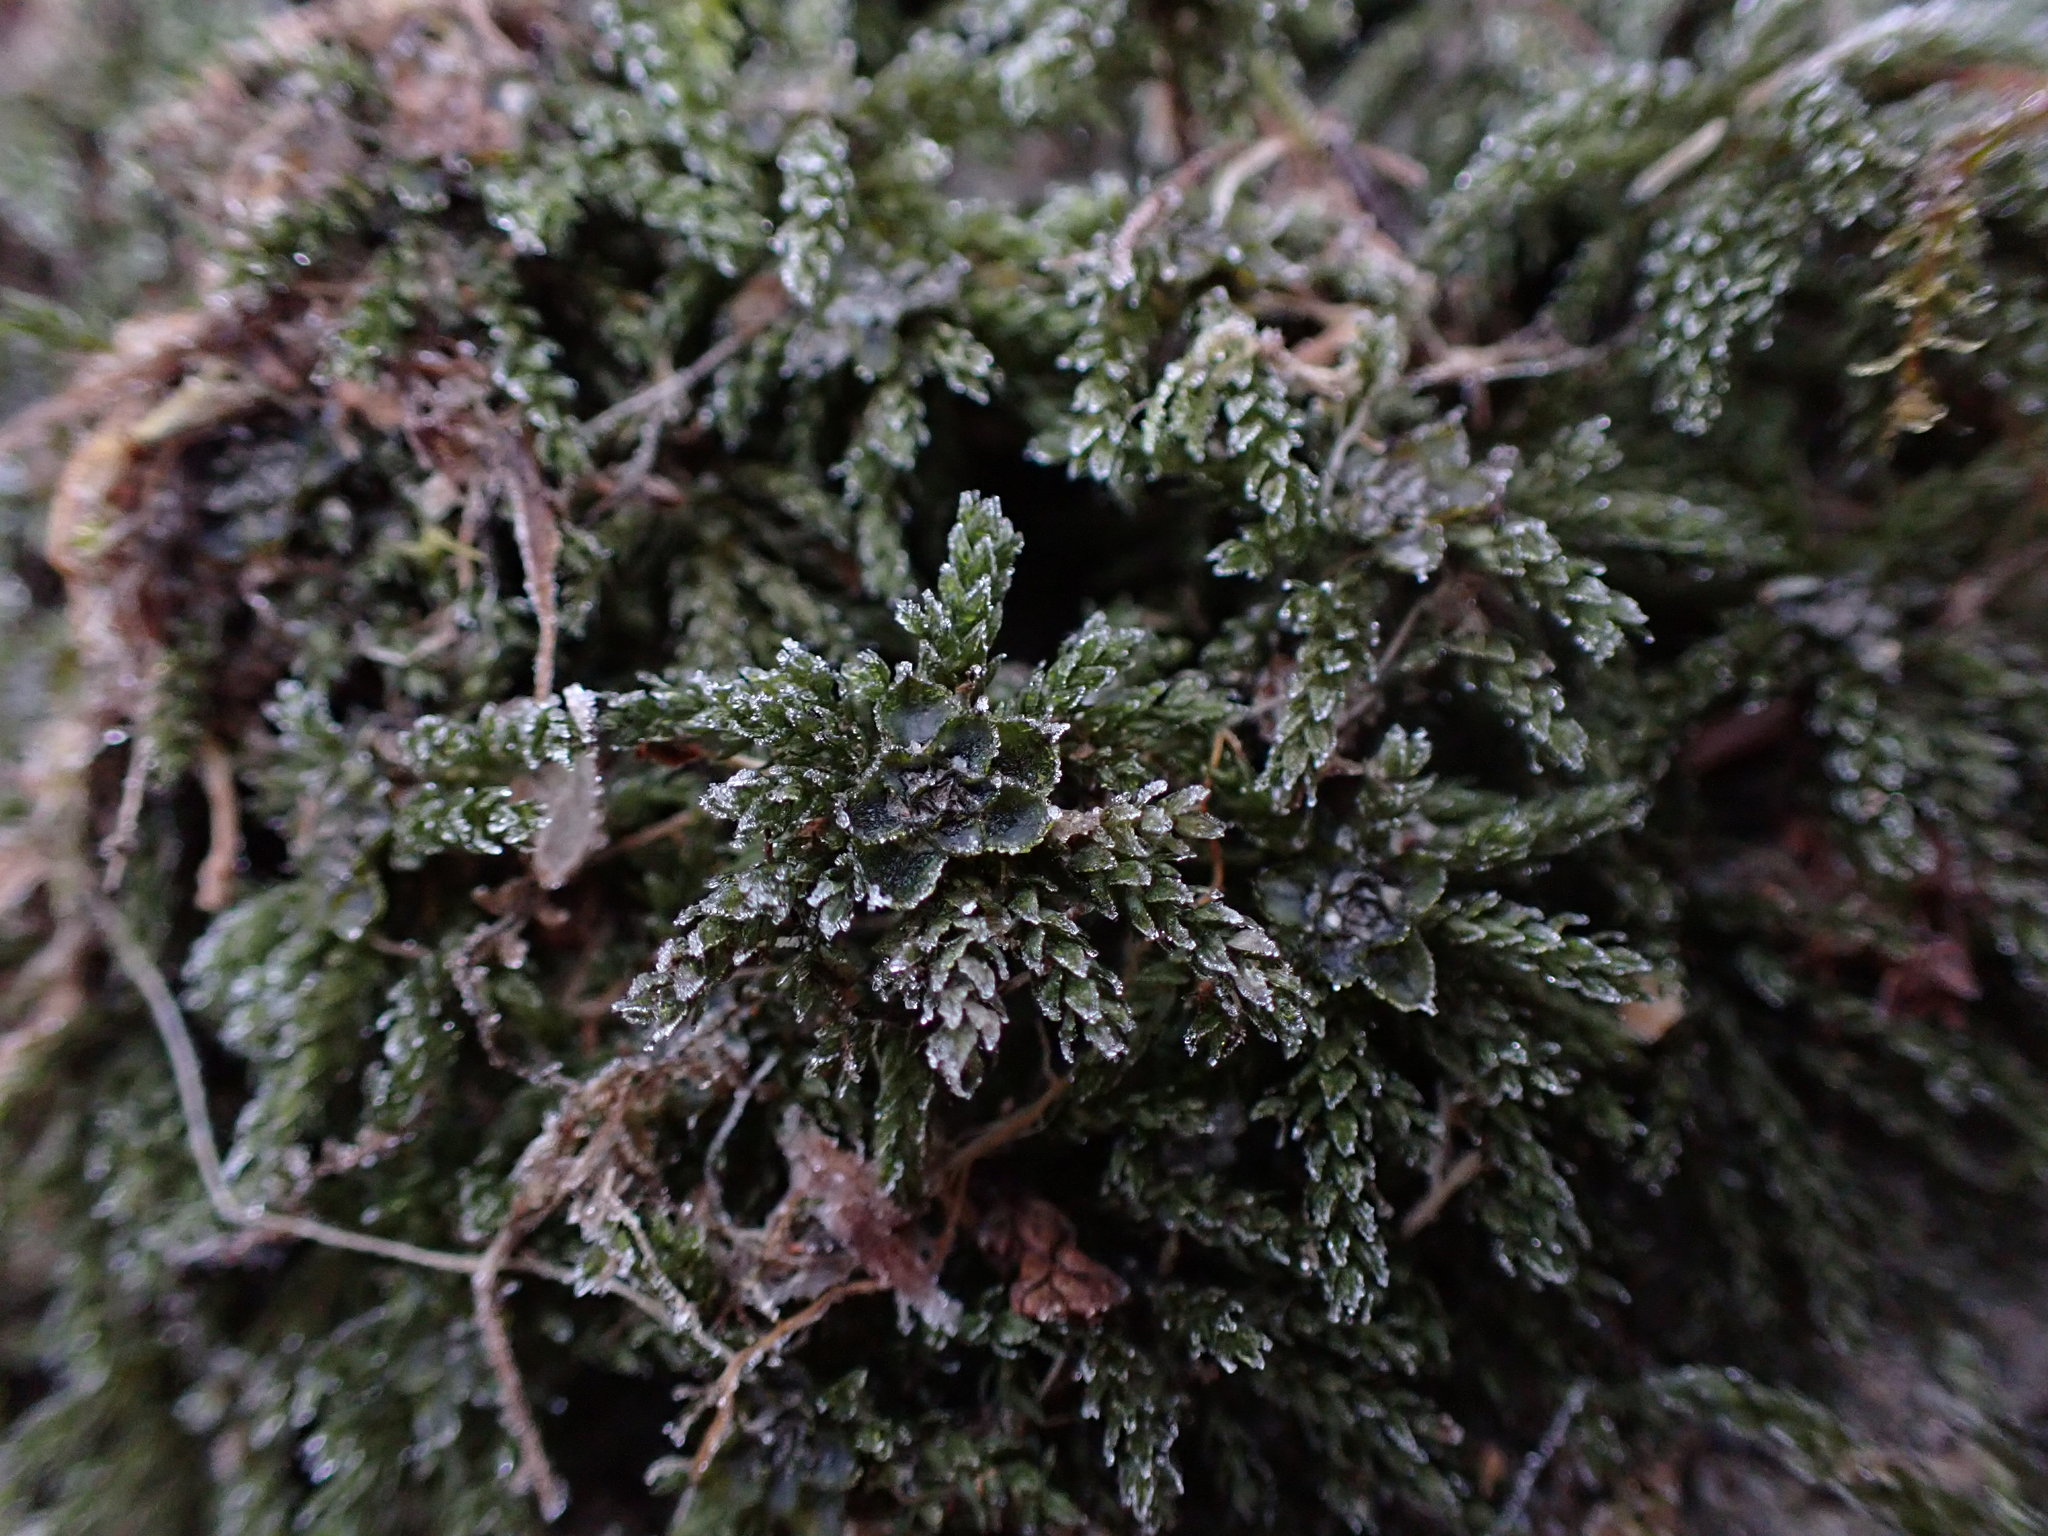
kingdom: Plantae
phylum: Bryophyta
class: Bryopsida
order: Bryales
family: Mniaceae
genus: Leucolepis
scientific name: Leucolepis acanthoneura
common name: Leucolepis umbrella moss
